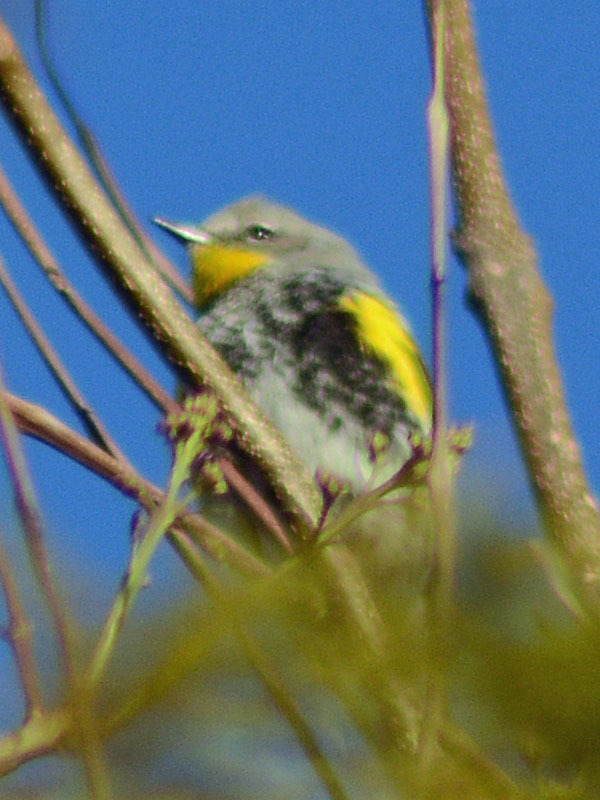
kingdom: Animalia
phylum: Chordata
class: Aves
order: Passeriformes
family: Parulidae
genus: Setophaga
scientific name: Setophaga coronata
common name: Myrtle warbler
